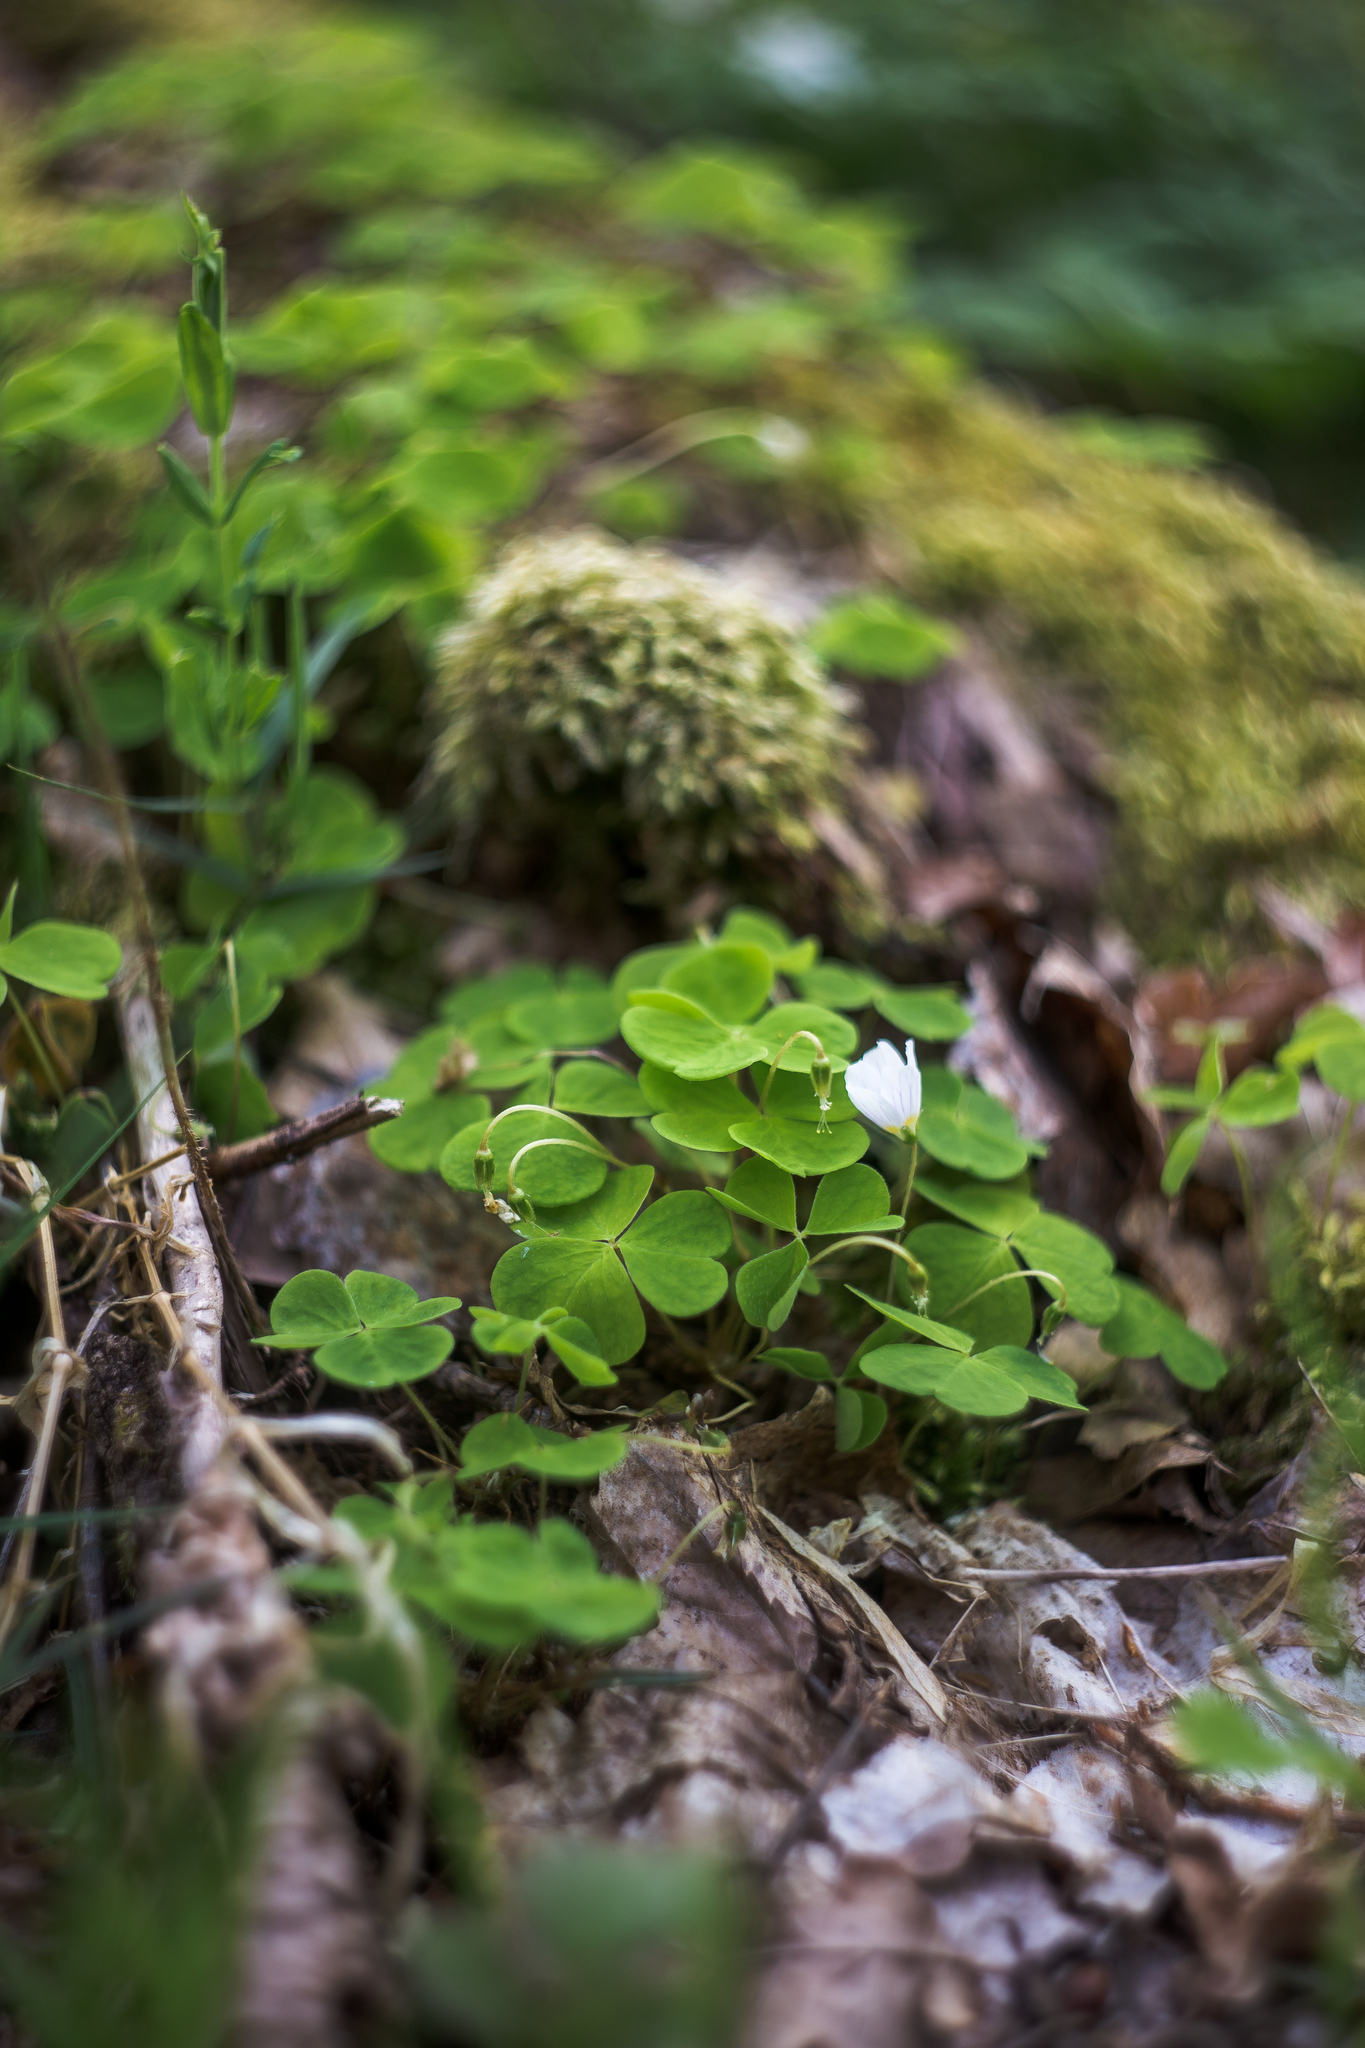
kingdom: Plantae
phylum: Tracheophyta
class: Magnoliopsida
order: Oxalidales
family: Oxalidaceae
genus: Oxalis
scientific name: Oxalis acetosella
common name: Wood-sorrel
